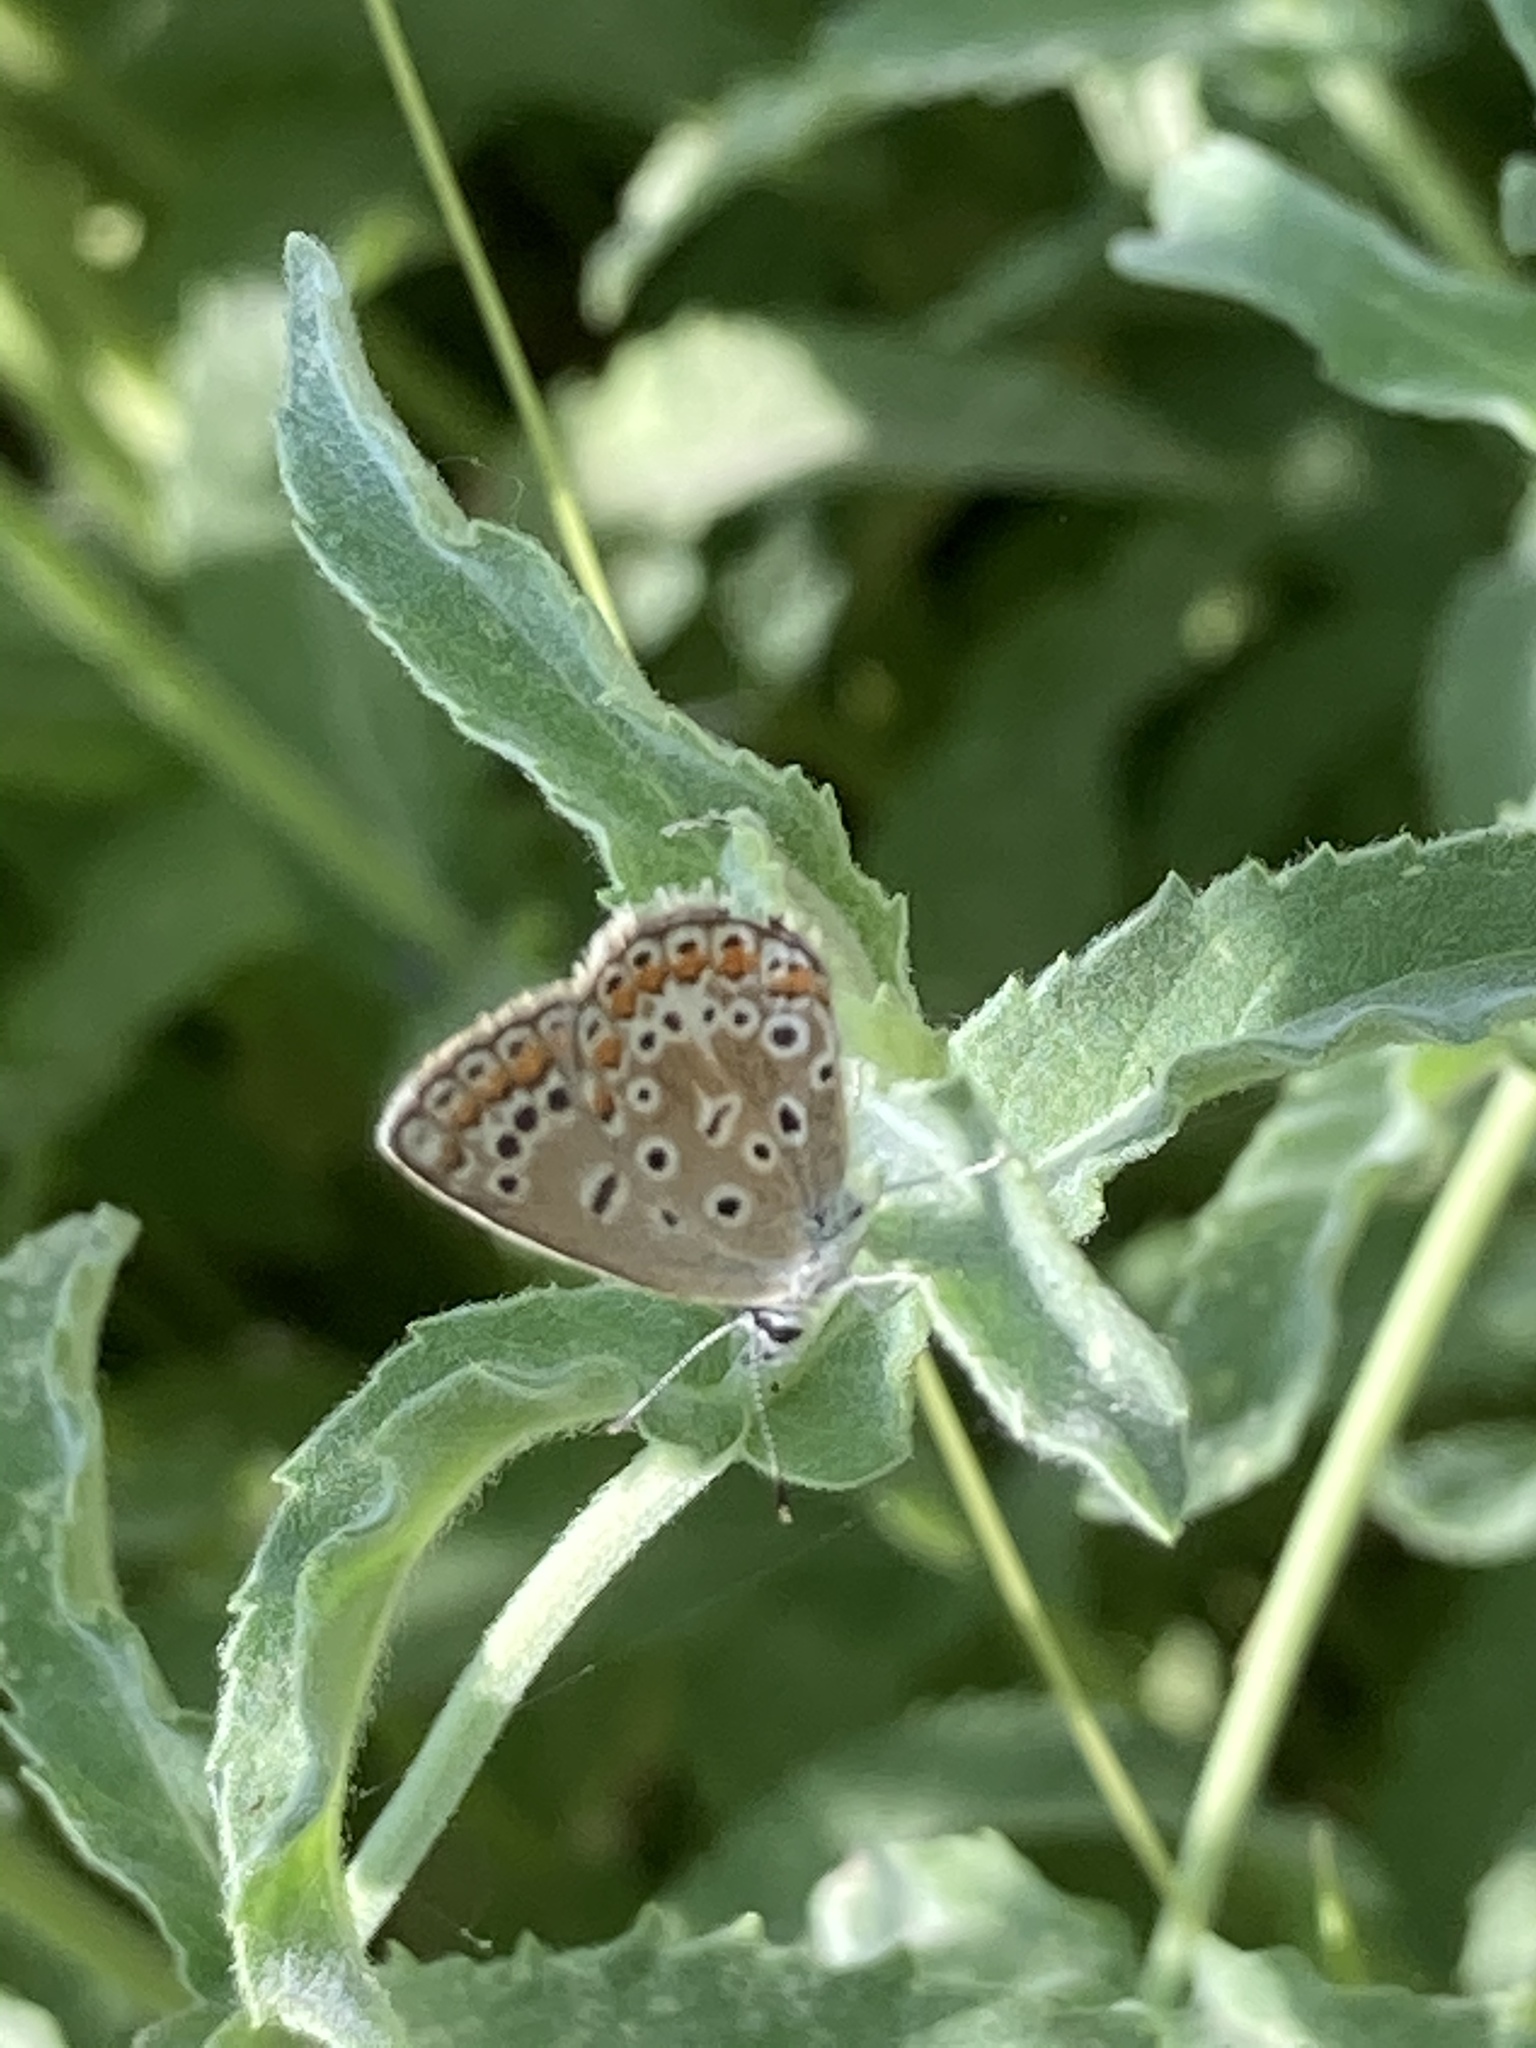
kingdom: Animalia
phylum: Arthropoda
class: Insecta
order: Lepidoptera
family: Lycaenidae
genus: Polyommatus
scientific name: Polyommatus icarus
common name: Common blue
